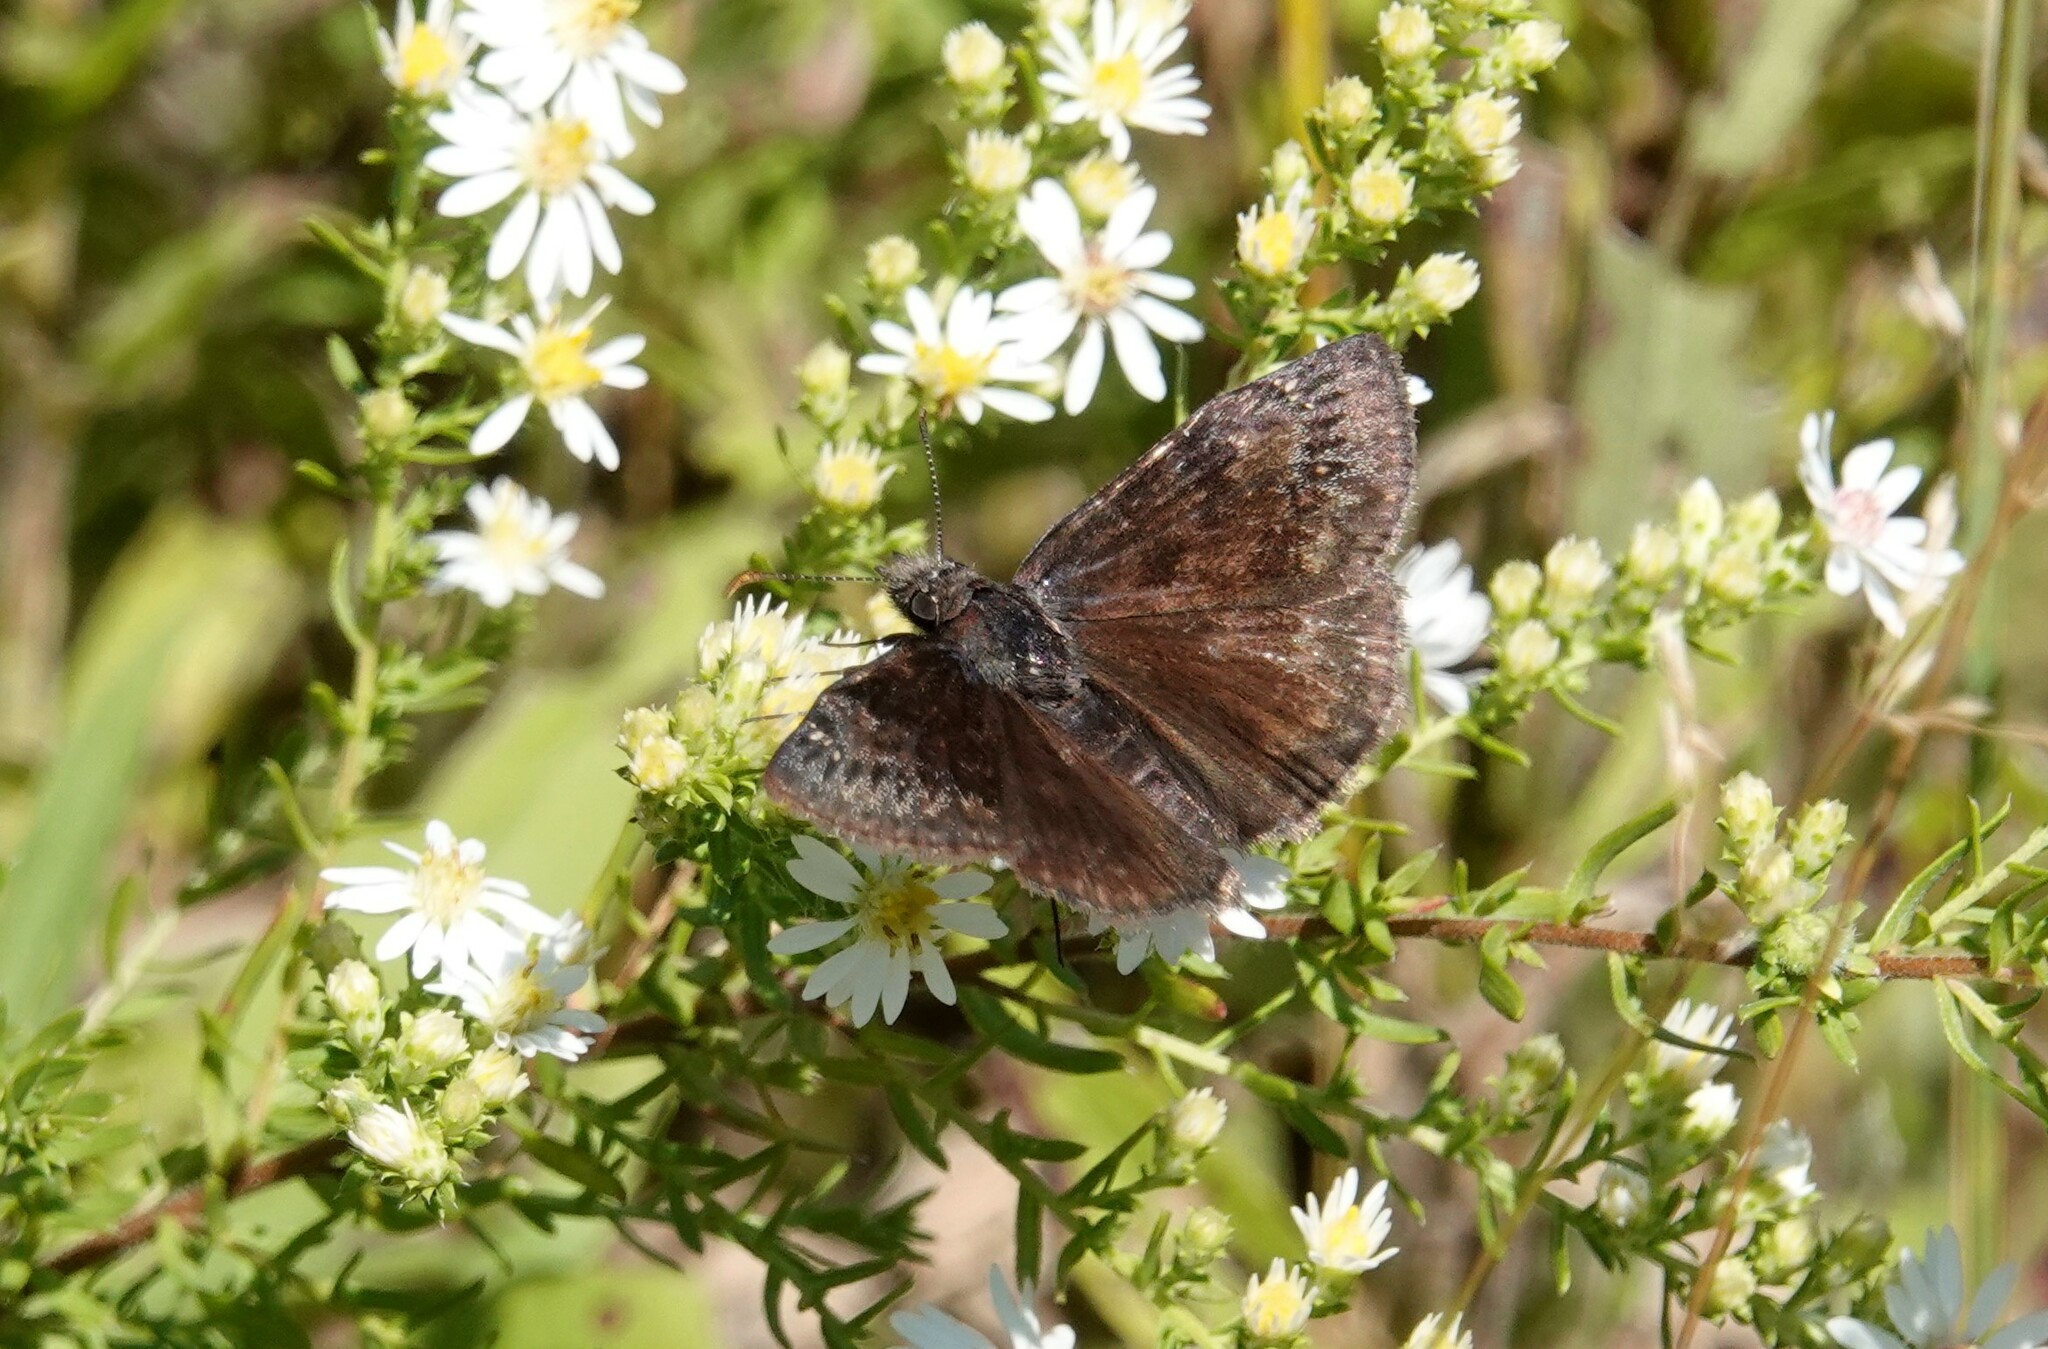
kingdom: Animalia
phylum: Arthropoda
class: Insecta
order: Lepidoptera
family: Hesperiidae
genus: Erynnis
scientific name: Erynnis baptisiae
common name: Wild indigo duskywing
